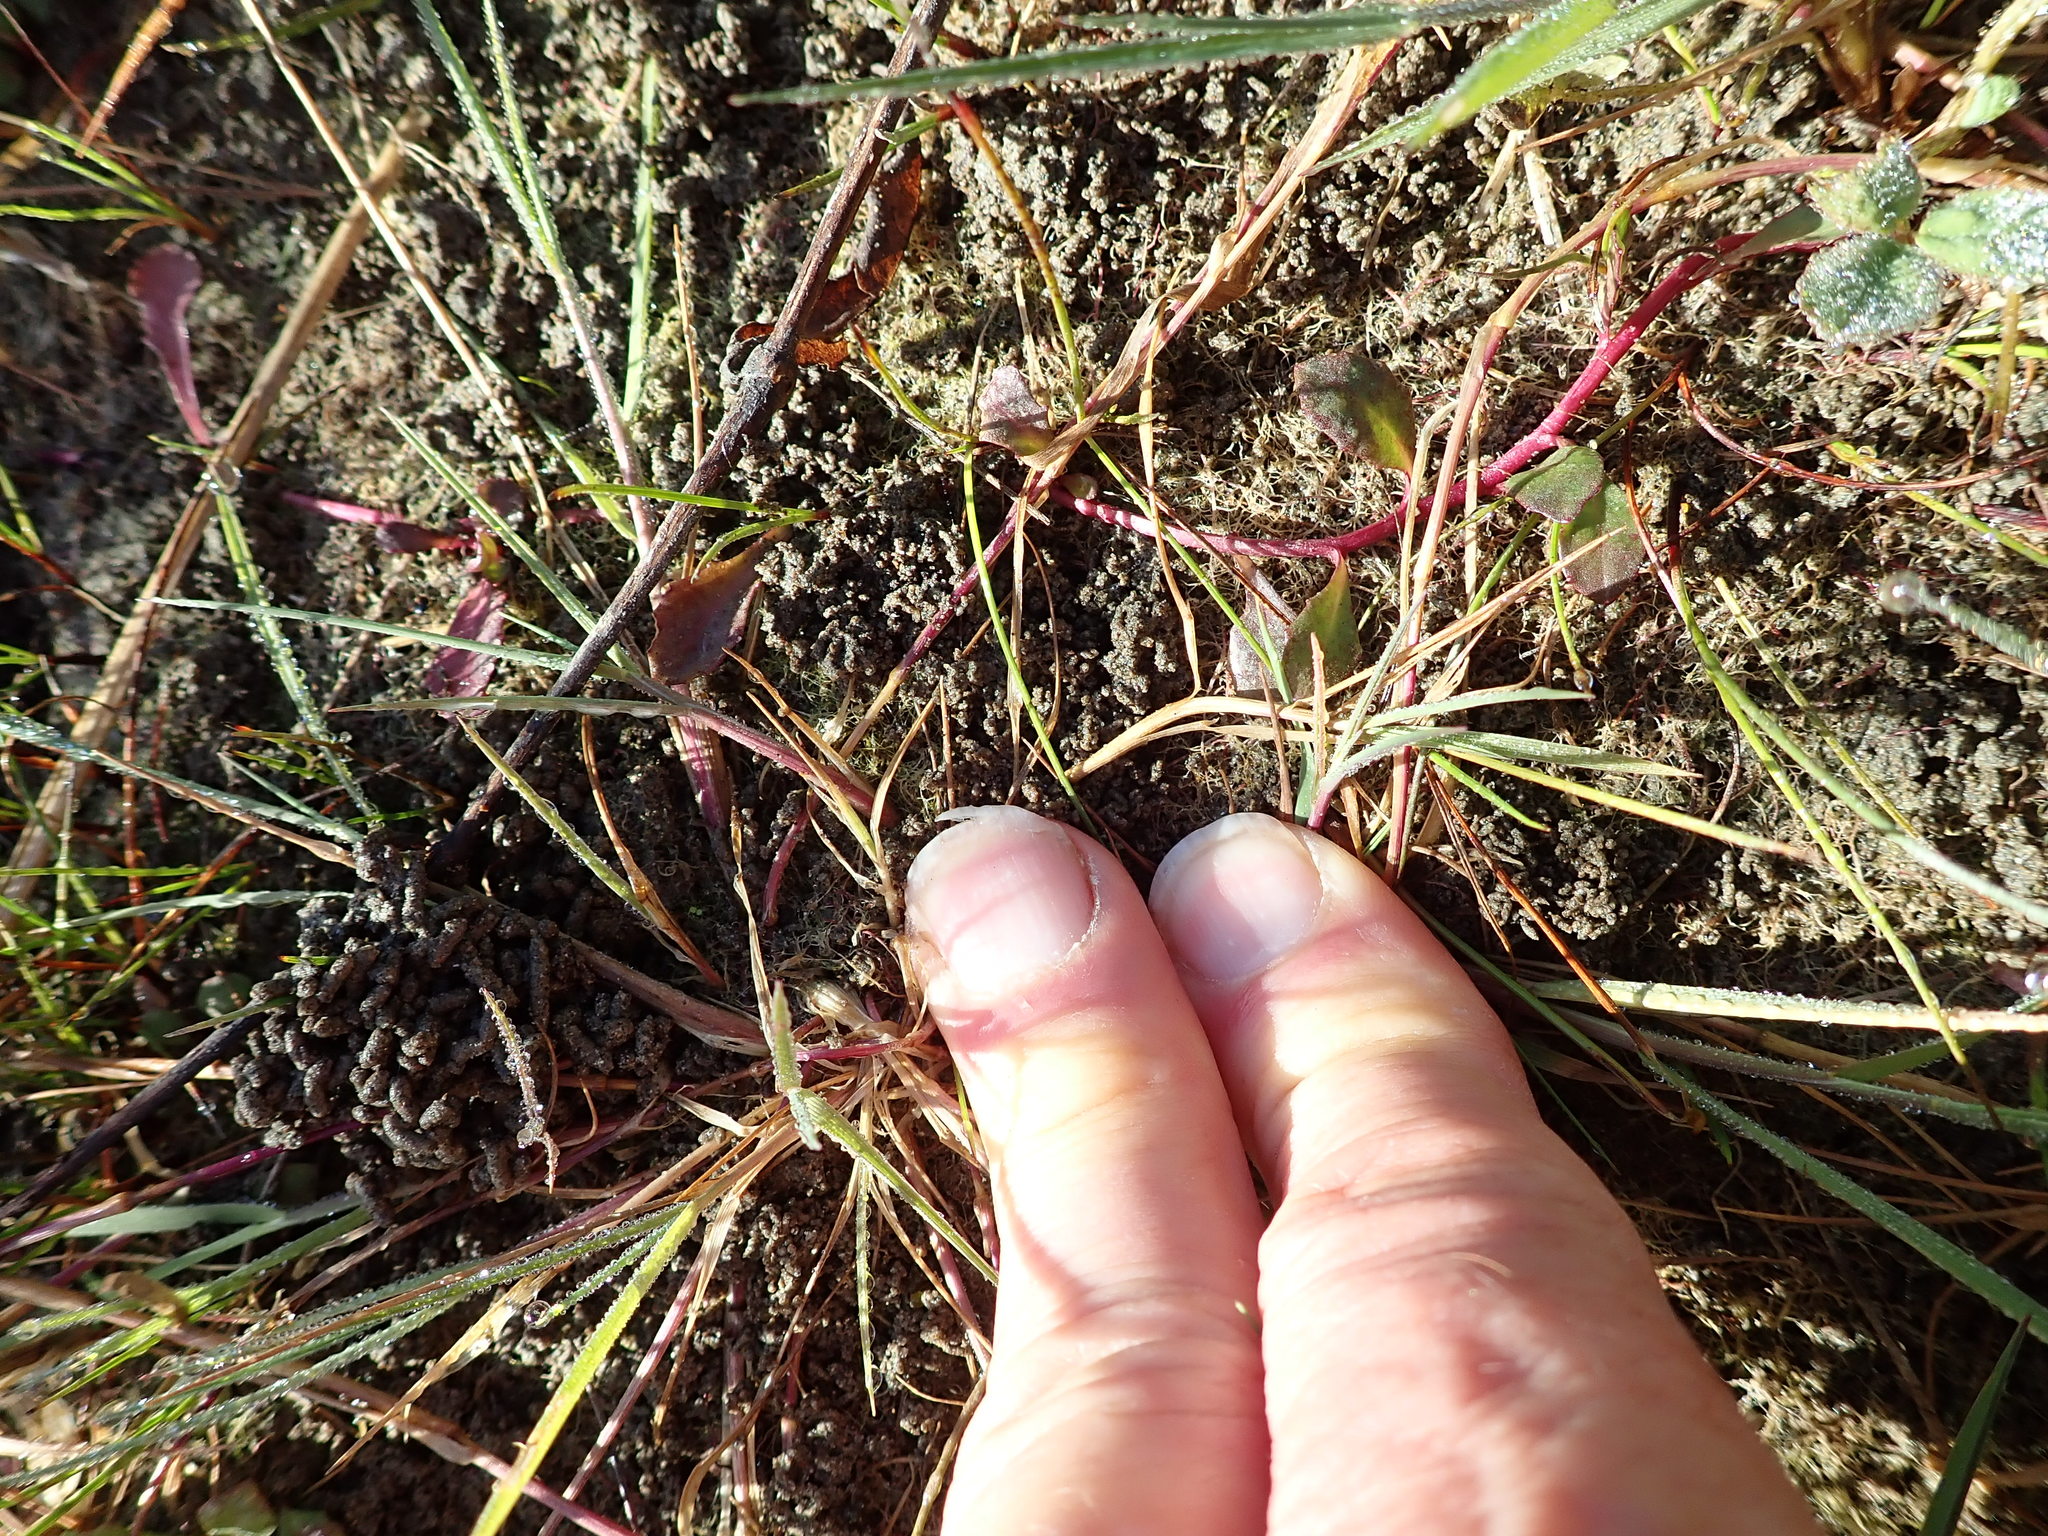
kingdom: Plantae
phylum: Tracheophyta
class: Magnoliopsida
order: Asterales
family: Campanulaceae
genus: Lobelia
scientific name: Lobelia anceps
